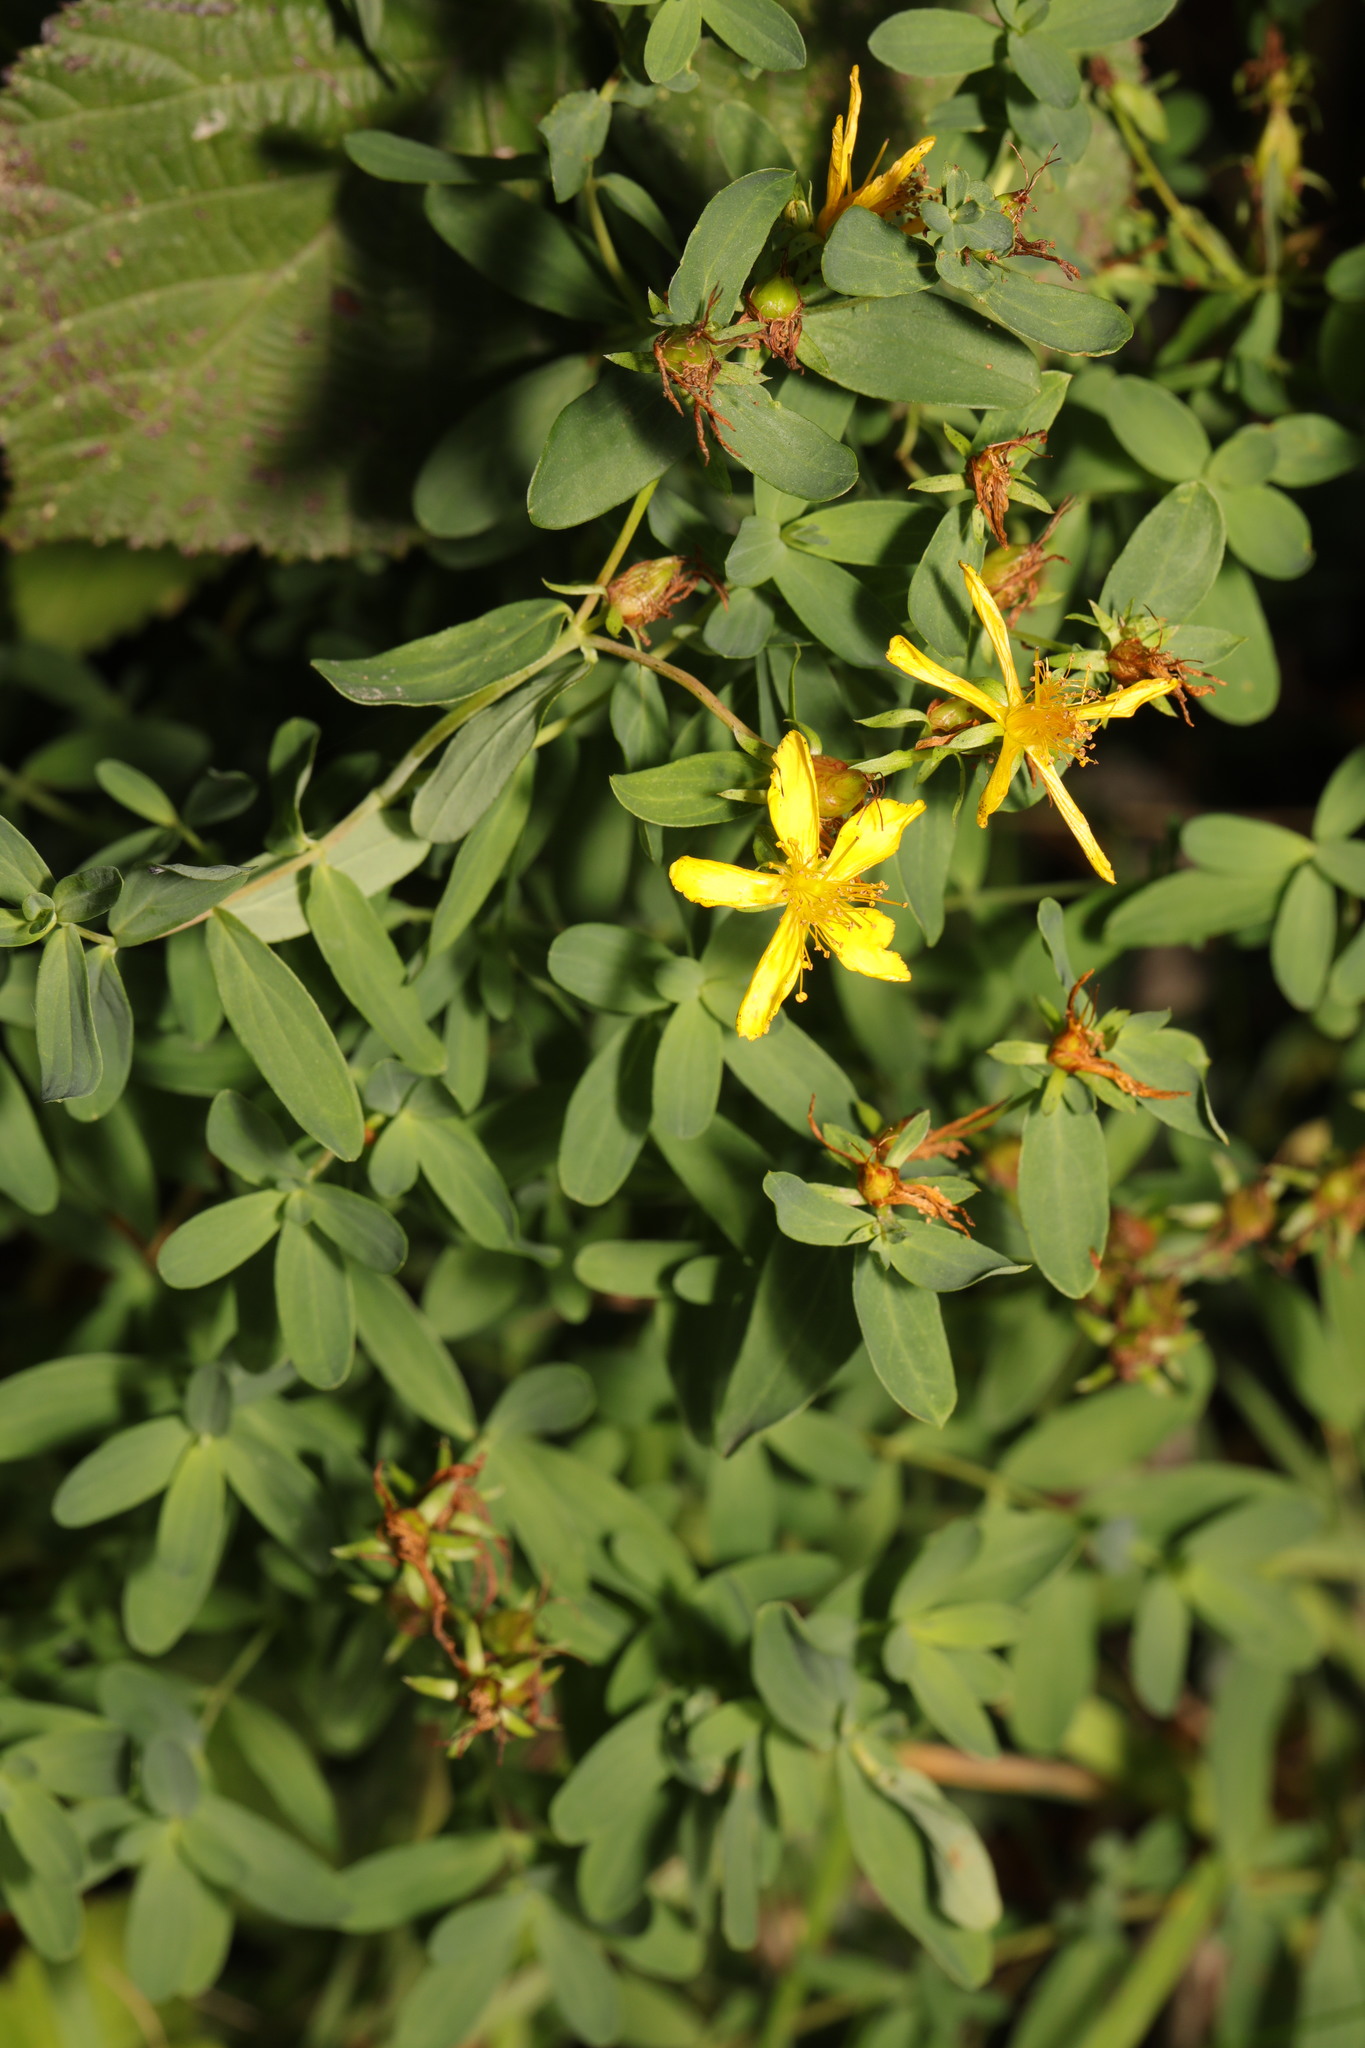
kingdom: Plantae
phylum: Tracheophyta
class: Magnoliopsida
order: Malpighiales
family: Hypericaceae
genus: Hypericum
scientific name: Hypericum perforatum
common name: Common st. johnswort
